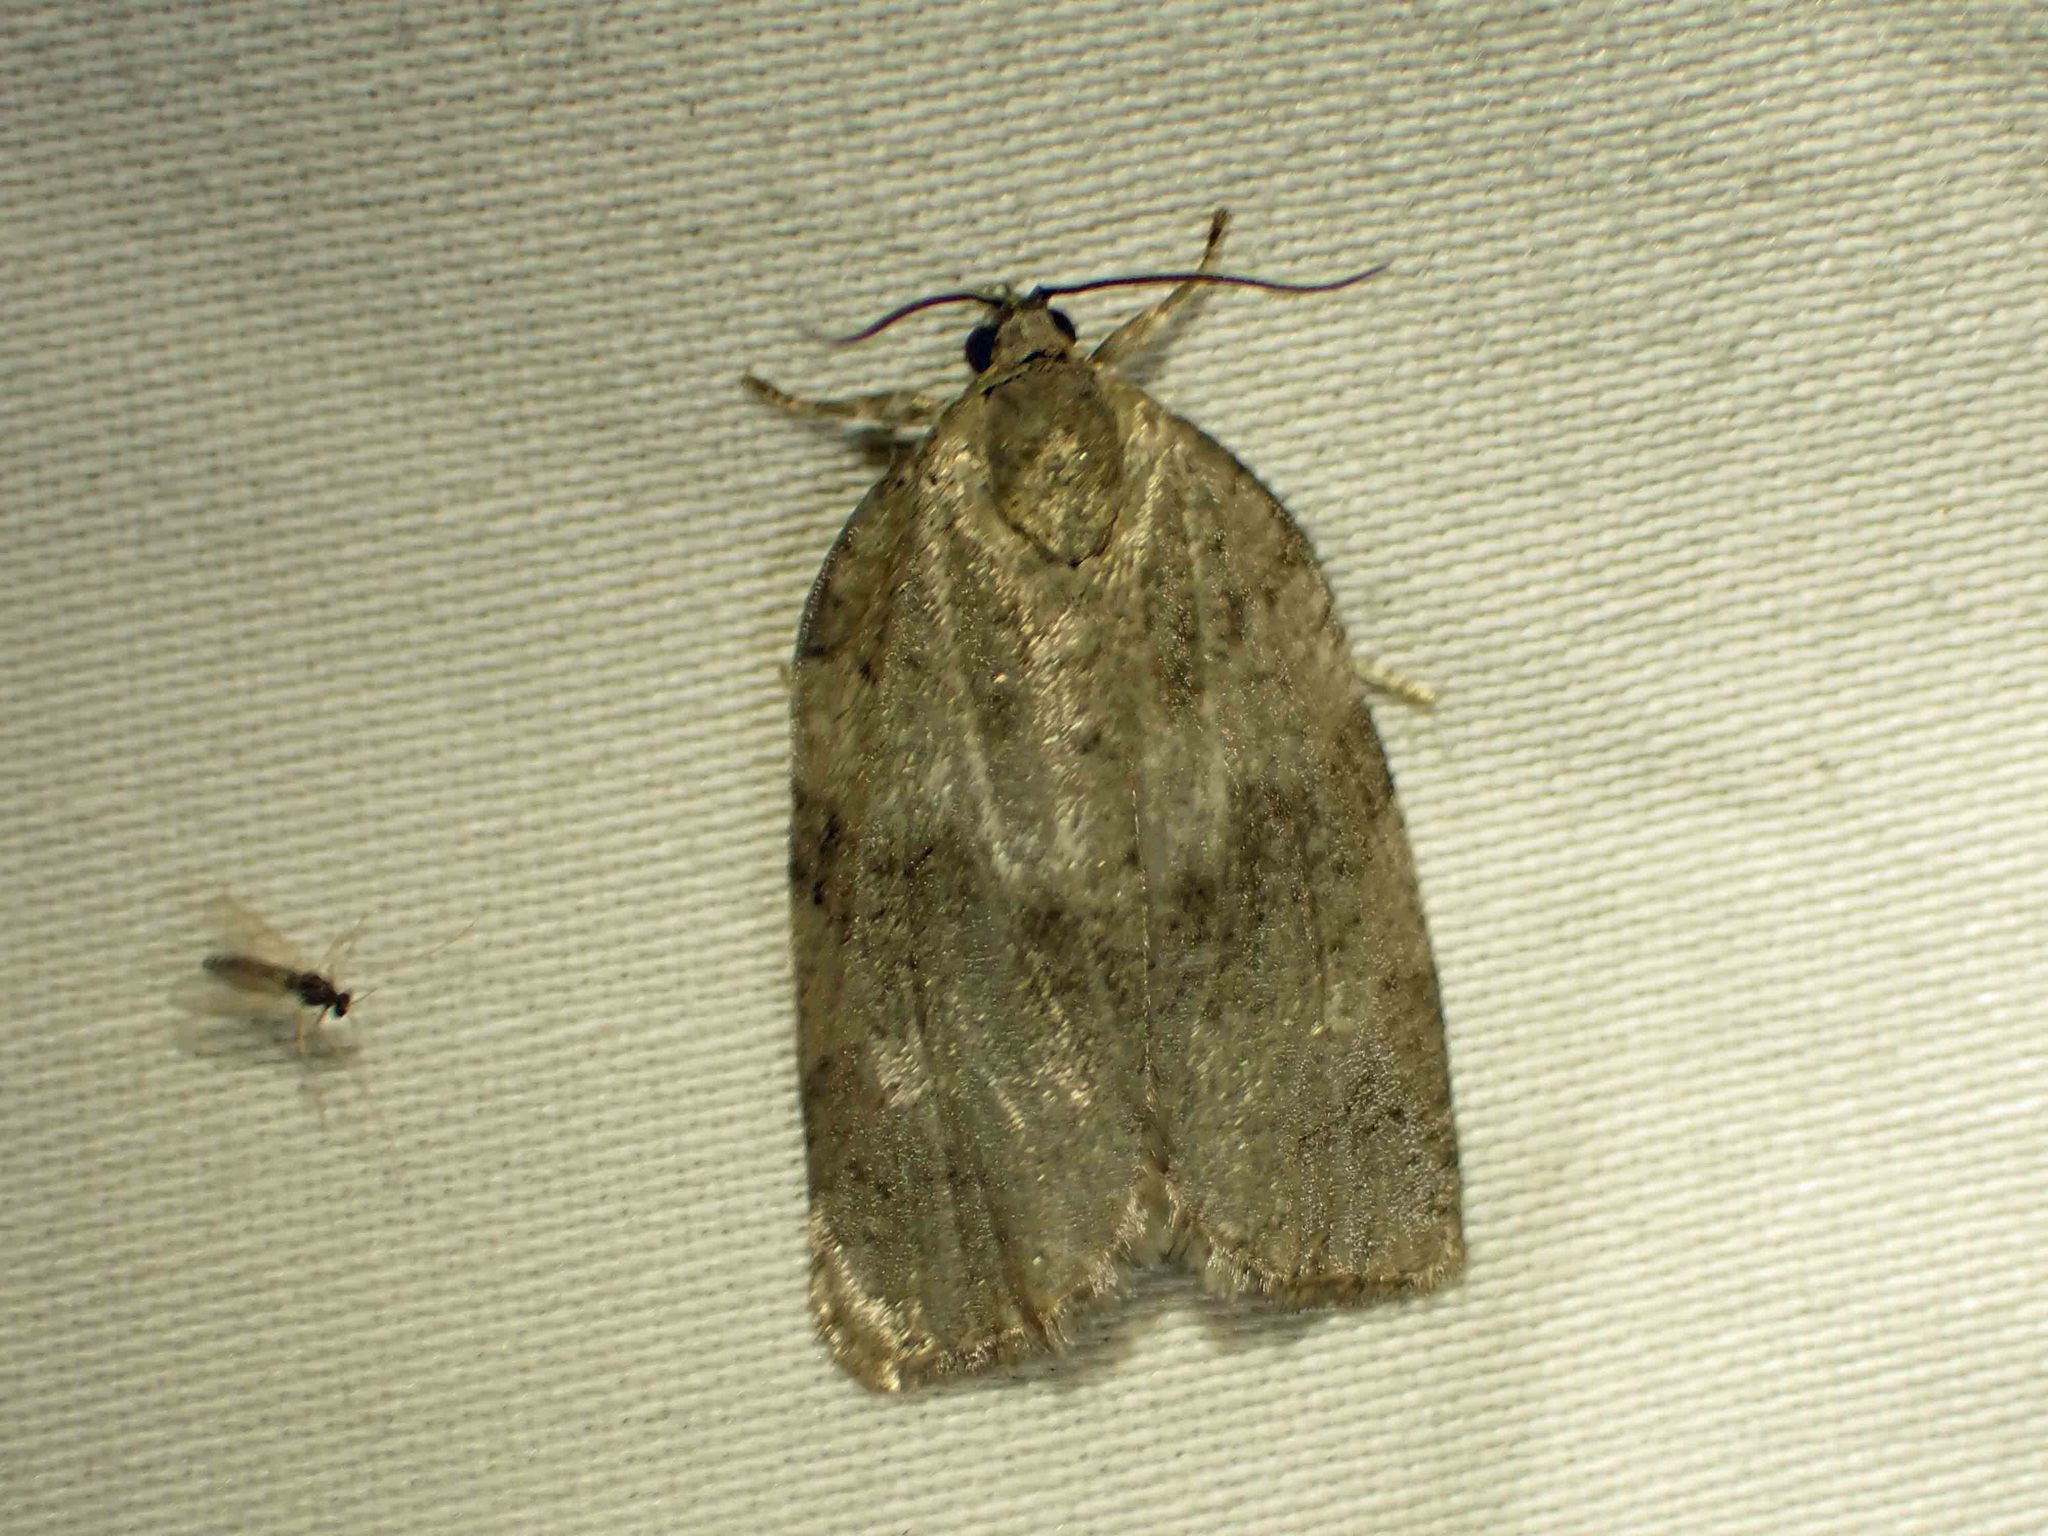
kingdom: Animalia
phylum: Arthropoda
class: Insecta
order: Lepidoptera
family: Tortricidae
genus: Choristoneura
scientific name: Choristoneura conflictana
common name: Large aspen tortrix
